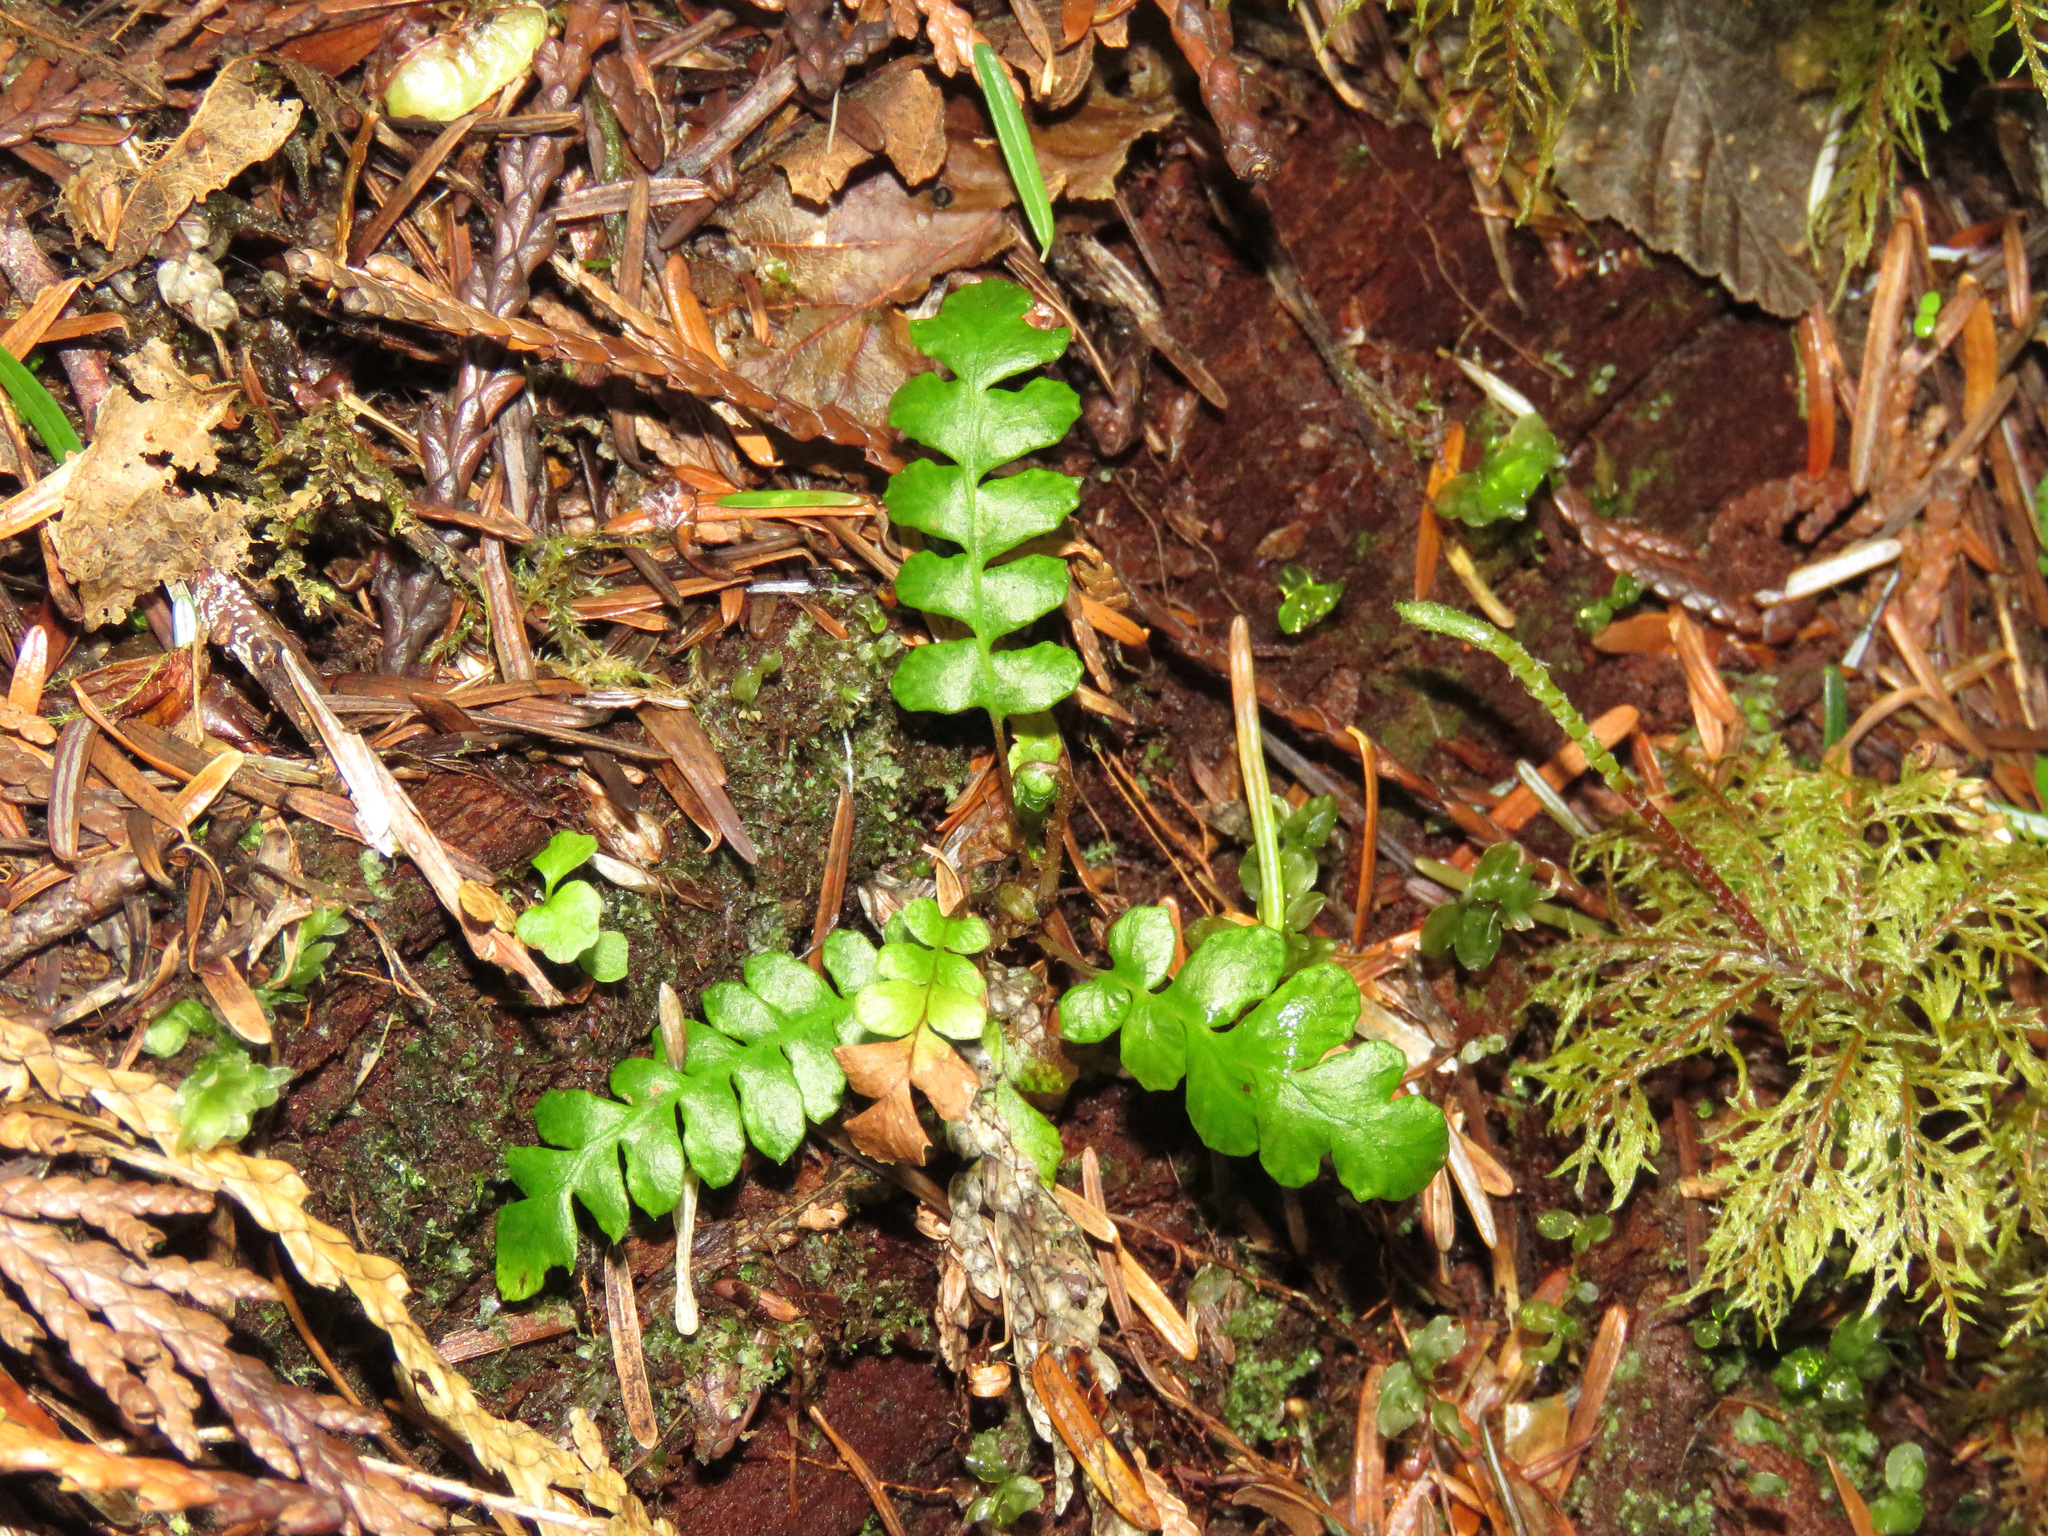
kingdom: Plantae
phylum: Tracheophyta
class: Polypodiopsida
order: Polypodiales
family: Blechnaceae
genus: Struthiopteris
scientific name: Struthiopteris spicant
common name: Deer fern
